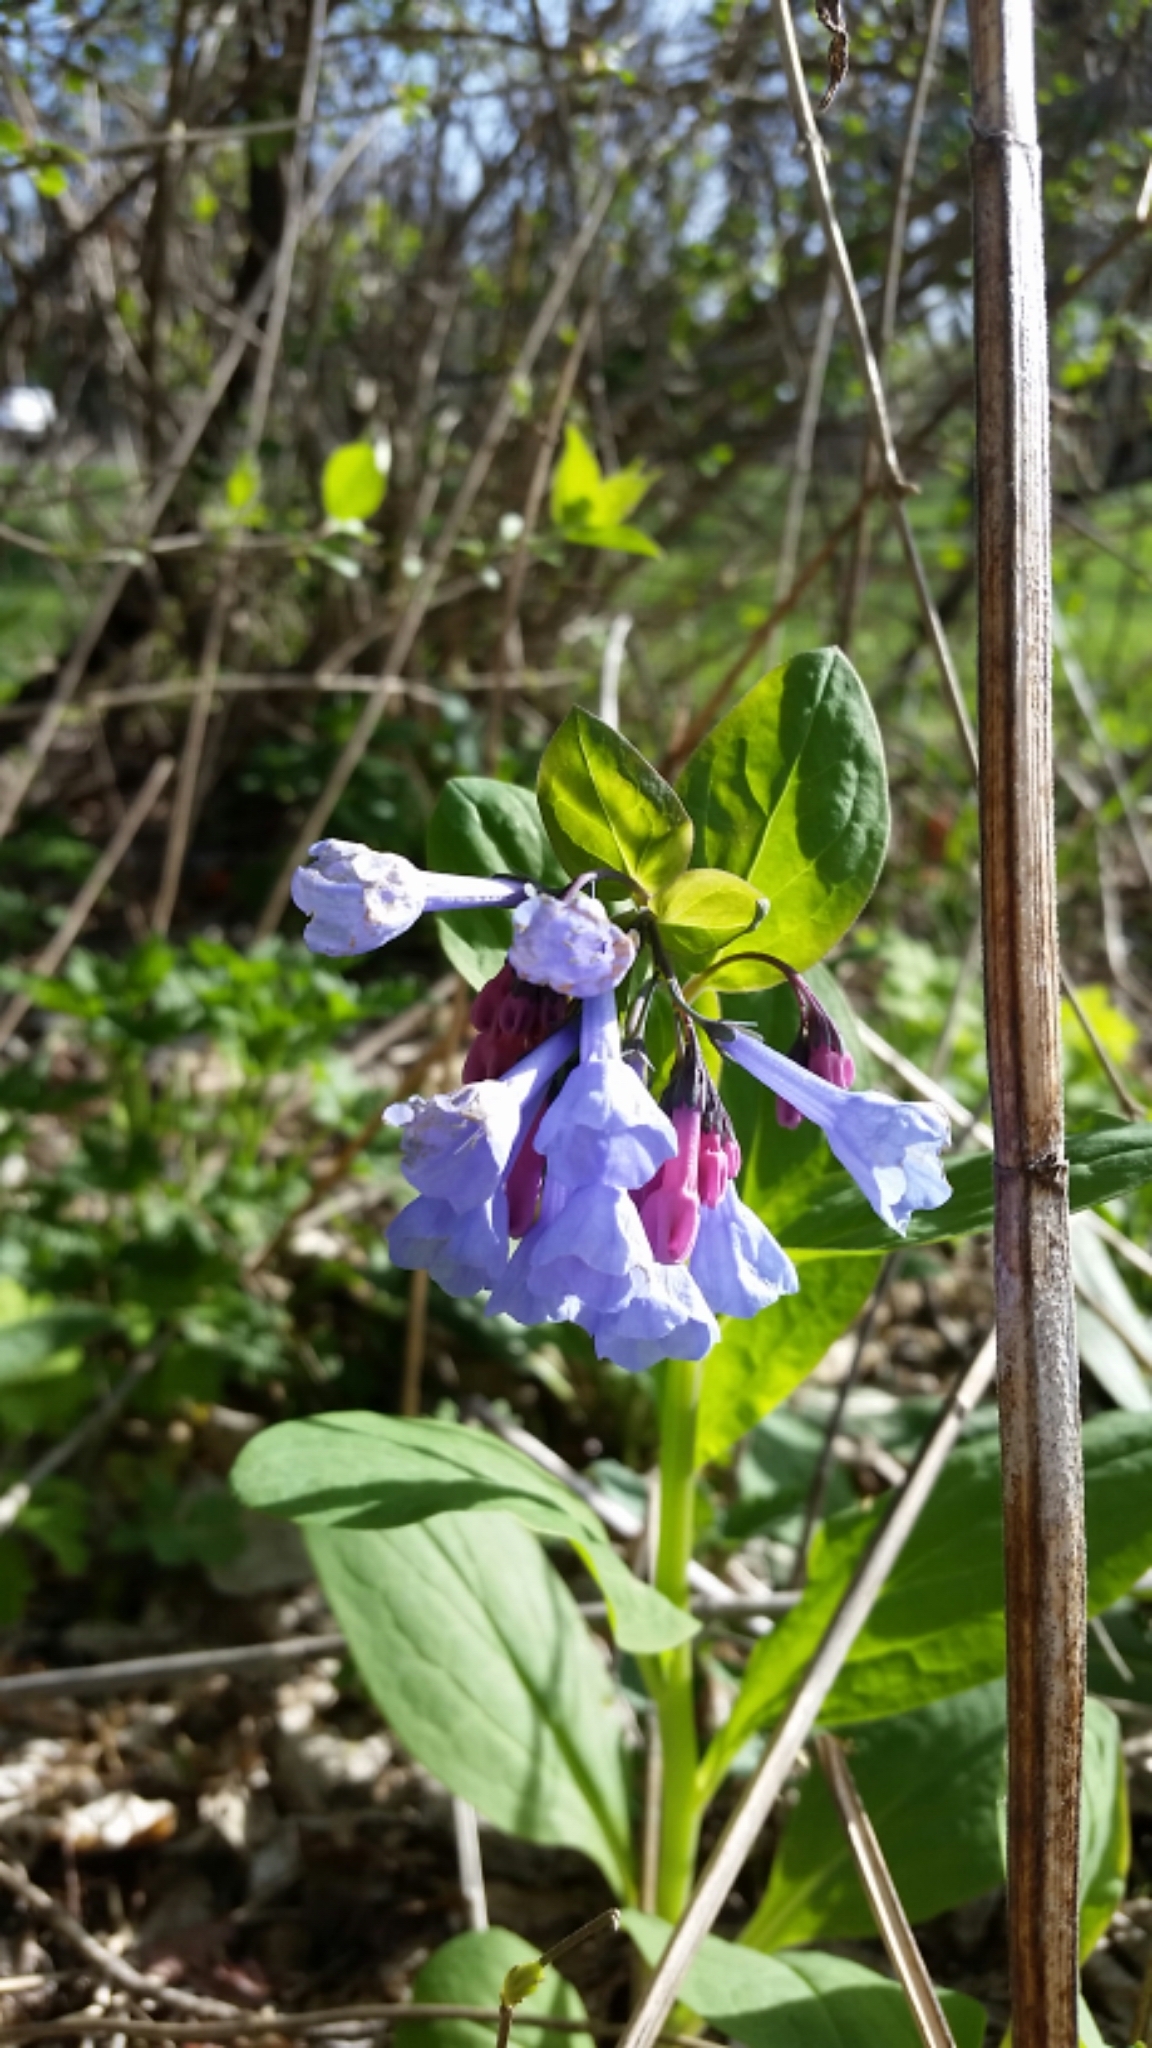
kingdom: Plantae
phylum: Tracheophyta
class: Magnoliopsida
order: Boraginales
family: Boraginaceae
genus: Mertensia
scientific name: Mertensia virginica
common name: Virginia bluebells
